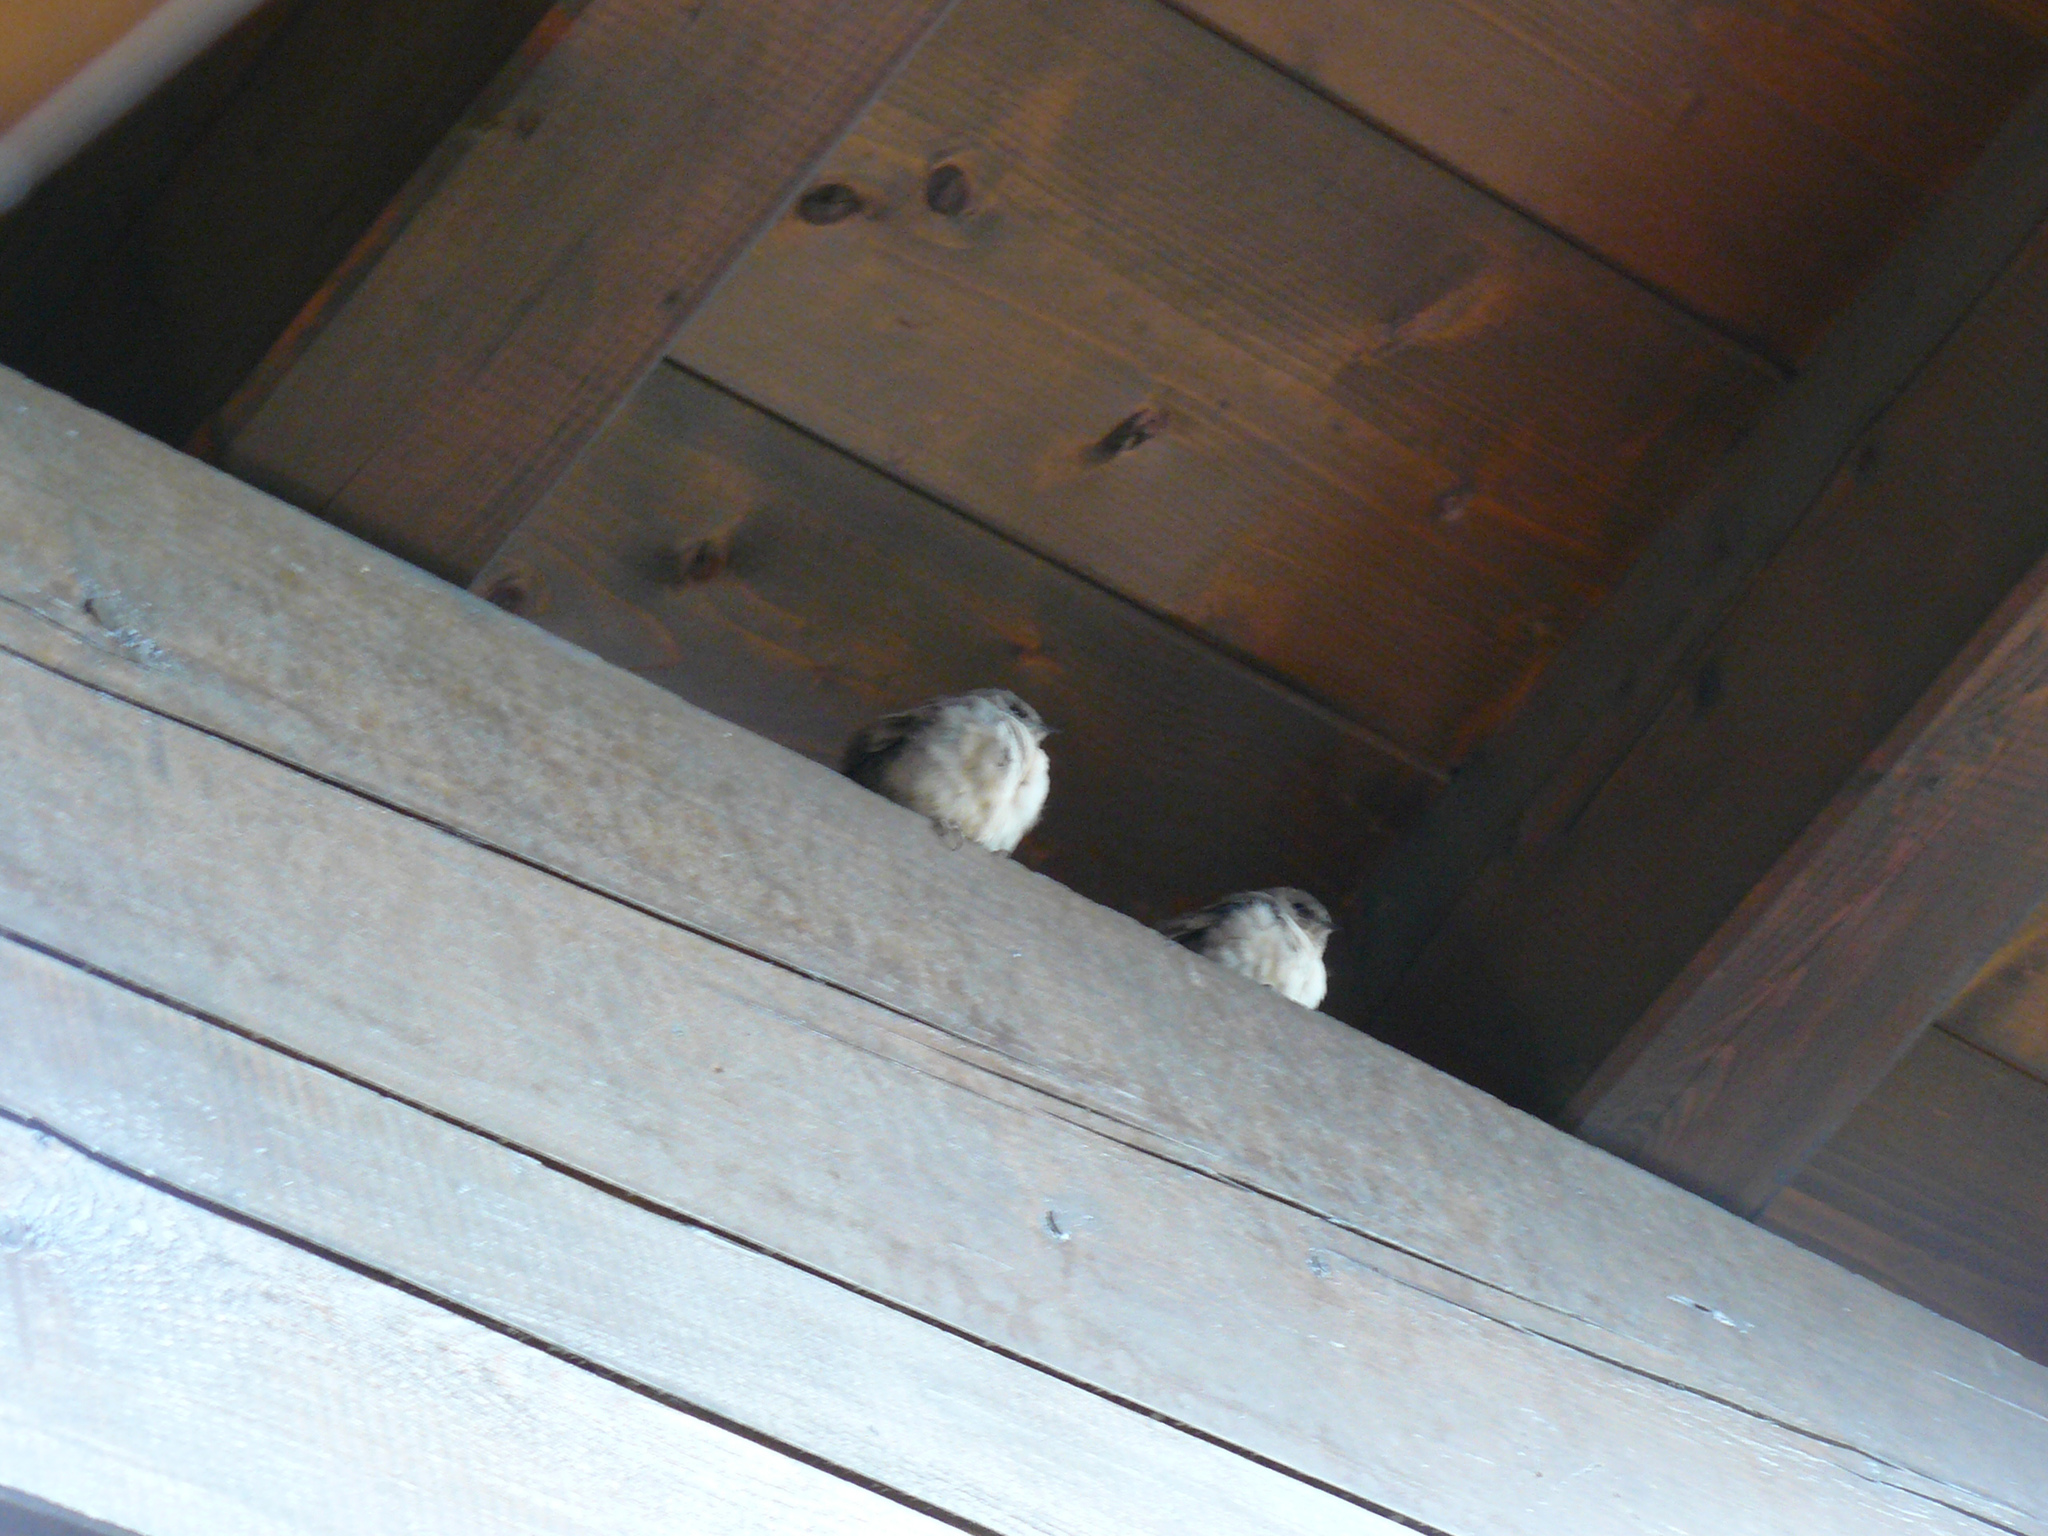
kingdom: Animalia
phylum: Chordata
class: Aves
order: Passeriformes
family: Hirundinidae
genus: Ptyonoprogne
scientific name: Ptyonoprogne rupestris
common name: Eurasian crag martin
